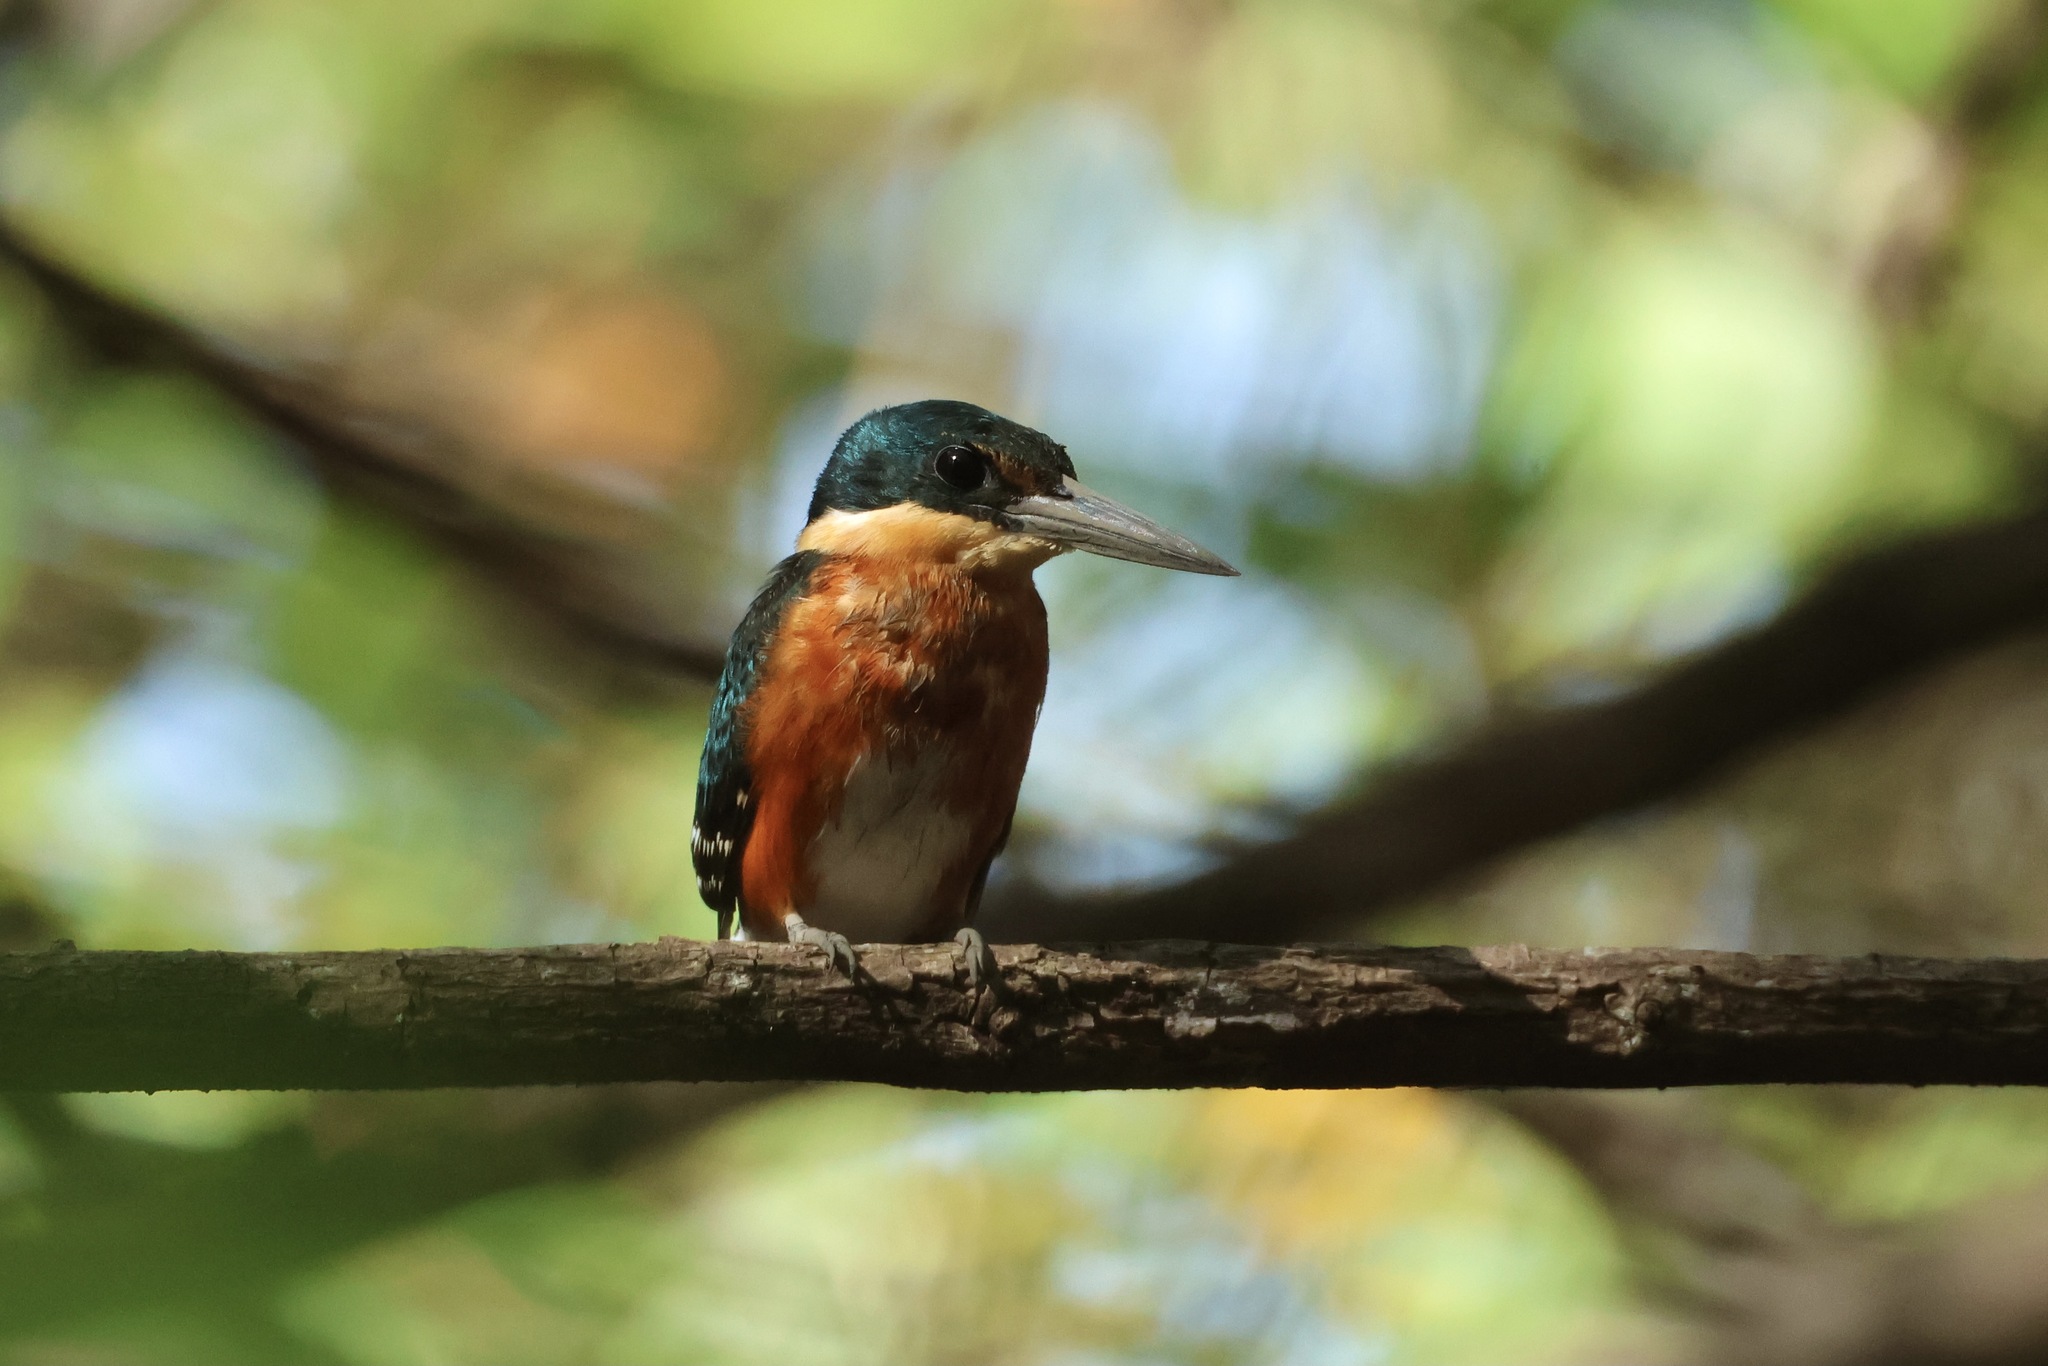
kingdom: Animalia
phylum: Chordata
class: Aves
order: Coraciiformes
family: Alcedinidae
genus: Chloroceryle
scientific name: Chloroceryle aenea
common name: American pygmy kingfisher
